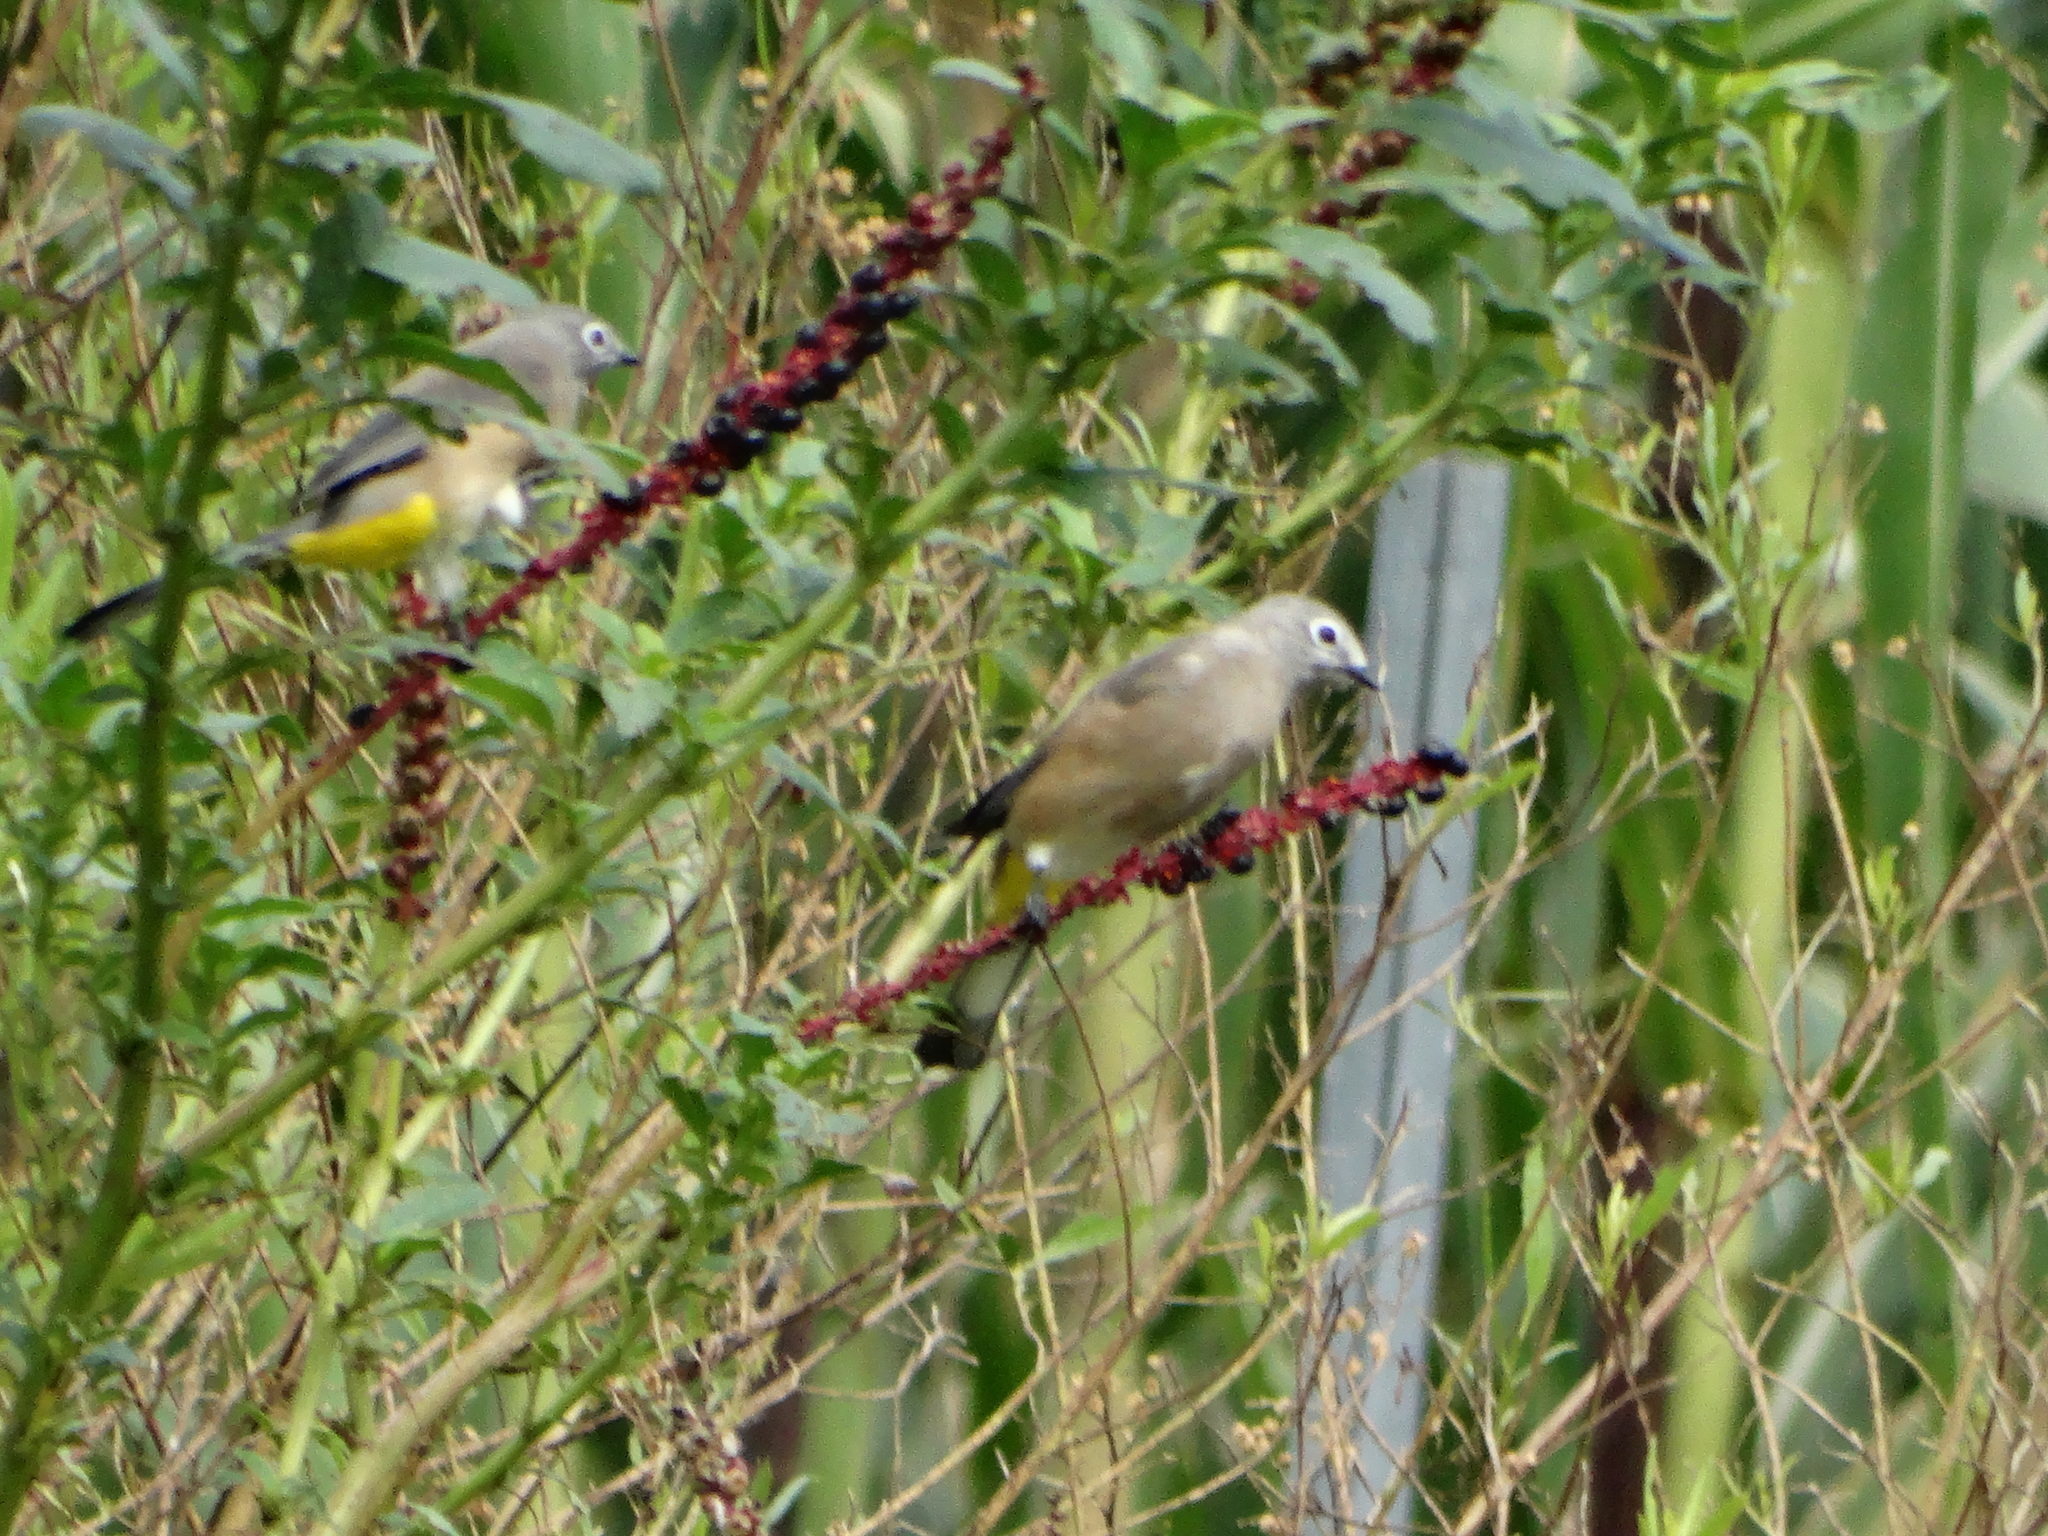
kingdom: Animalia
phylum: Chordata
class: Aves
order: Passeriformes
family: Ptilogonatidae
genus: Ptilogonys
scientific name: Ptilogonys cinereus
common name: Gray silky-flycatcher
